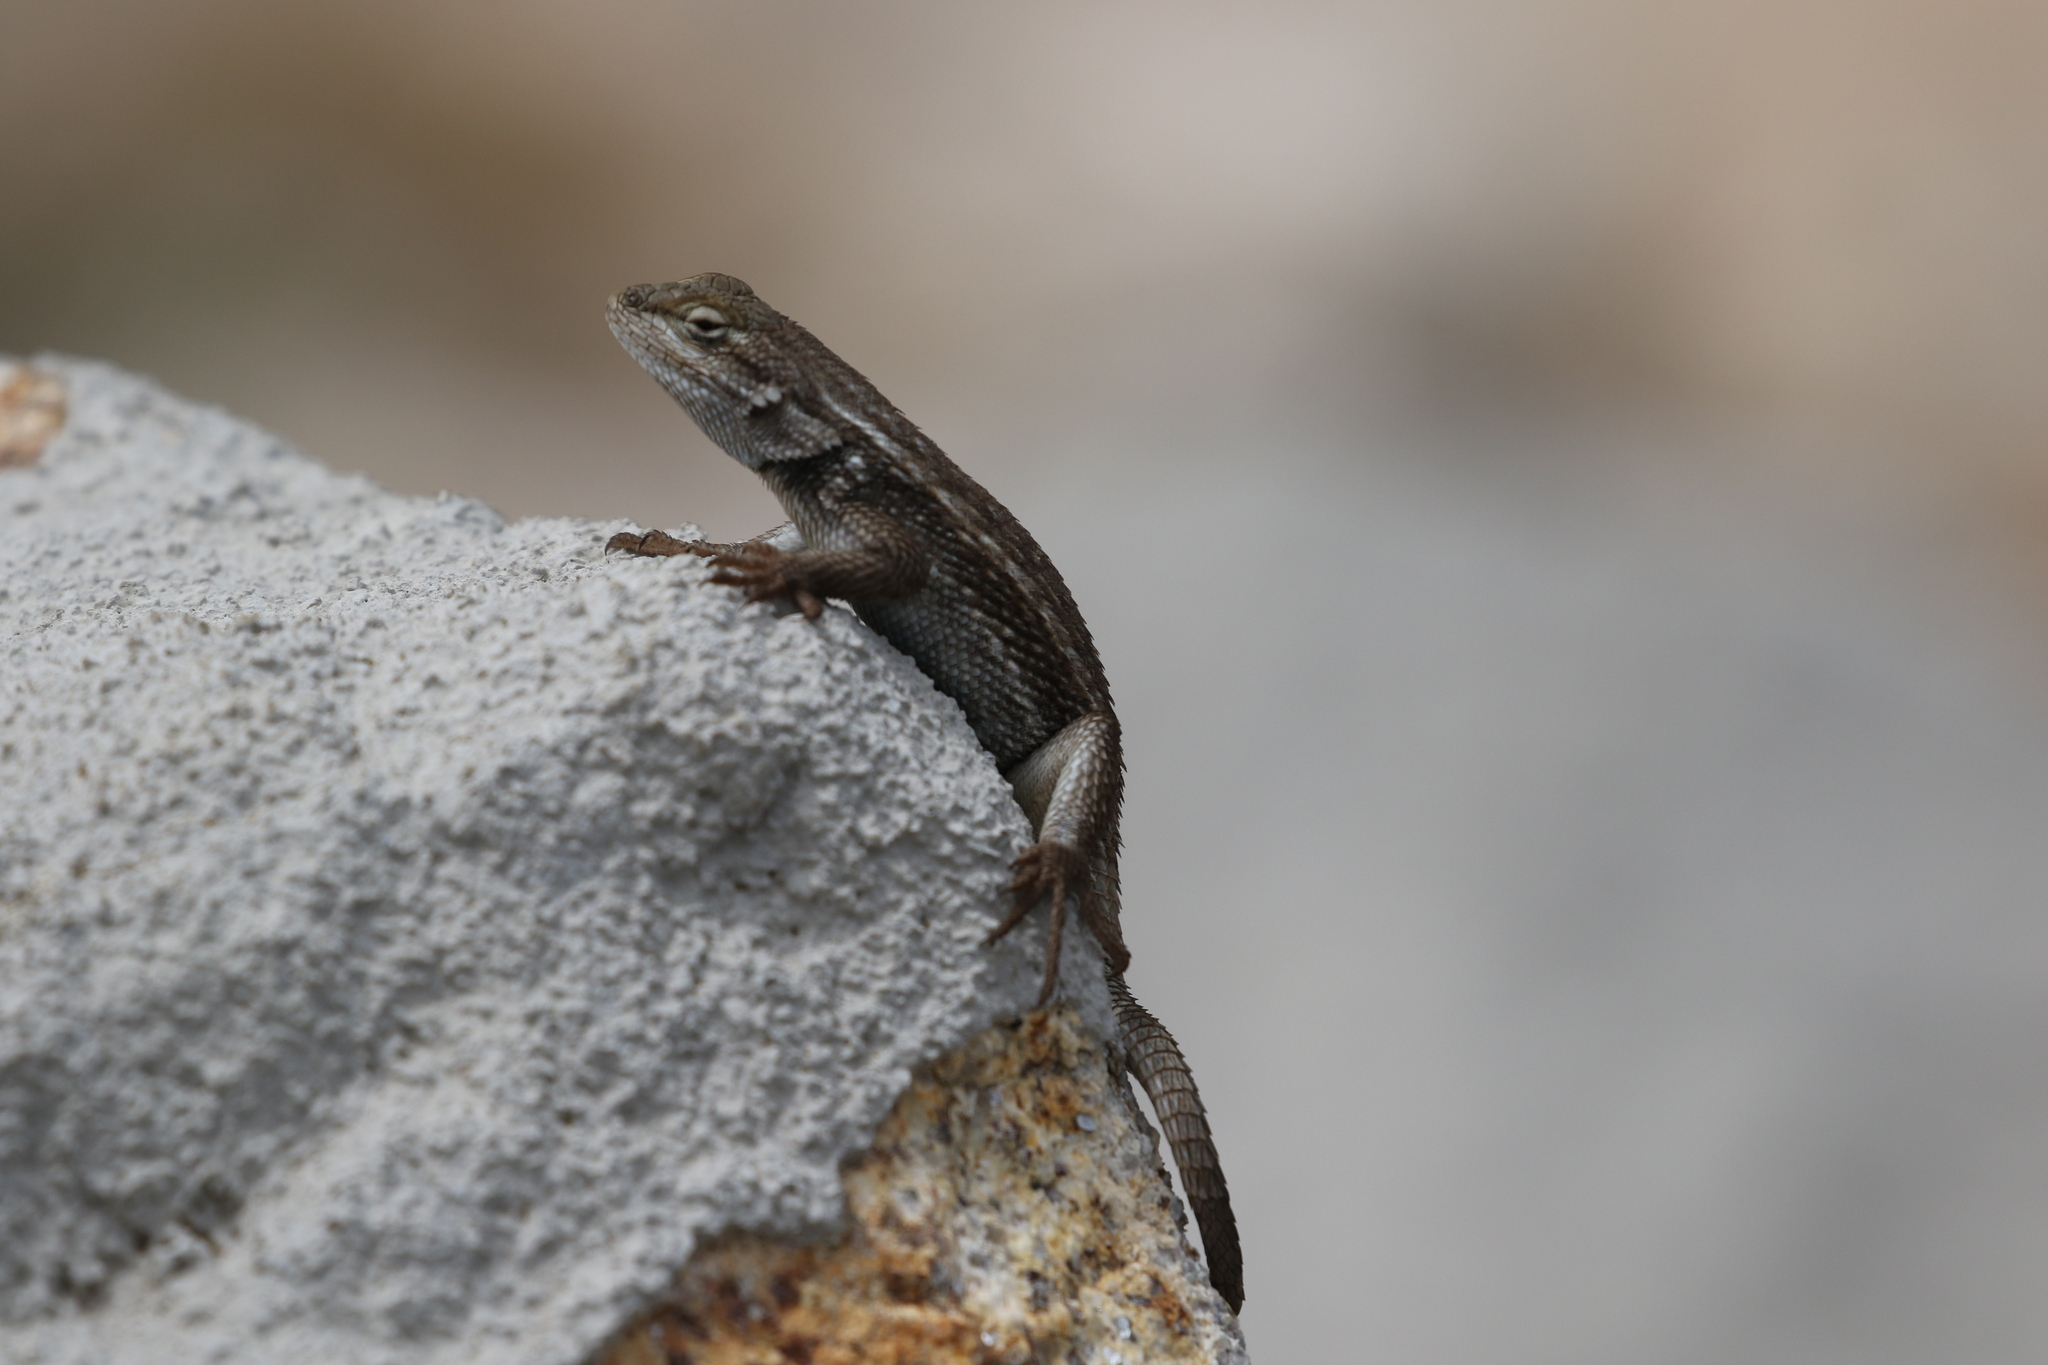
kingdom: Animalia
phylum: Chordata
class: Squamata
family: Phrynosomatidae
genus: Sceloporus
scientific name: Sceloporus cowlesi
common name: White sands prairie lizard
